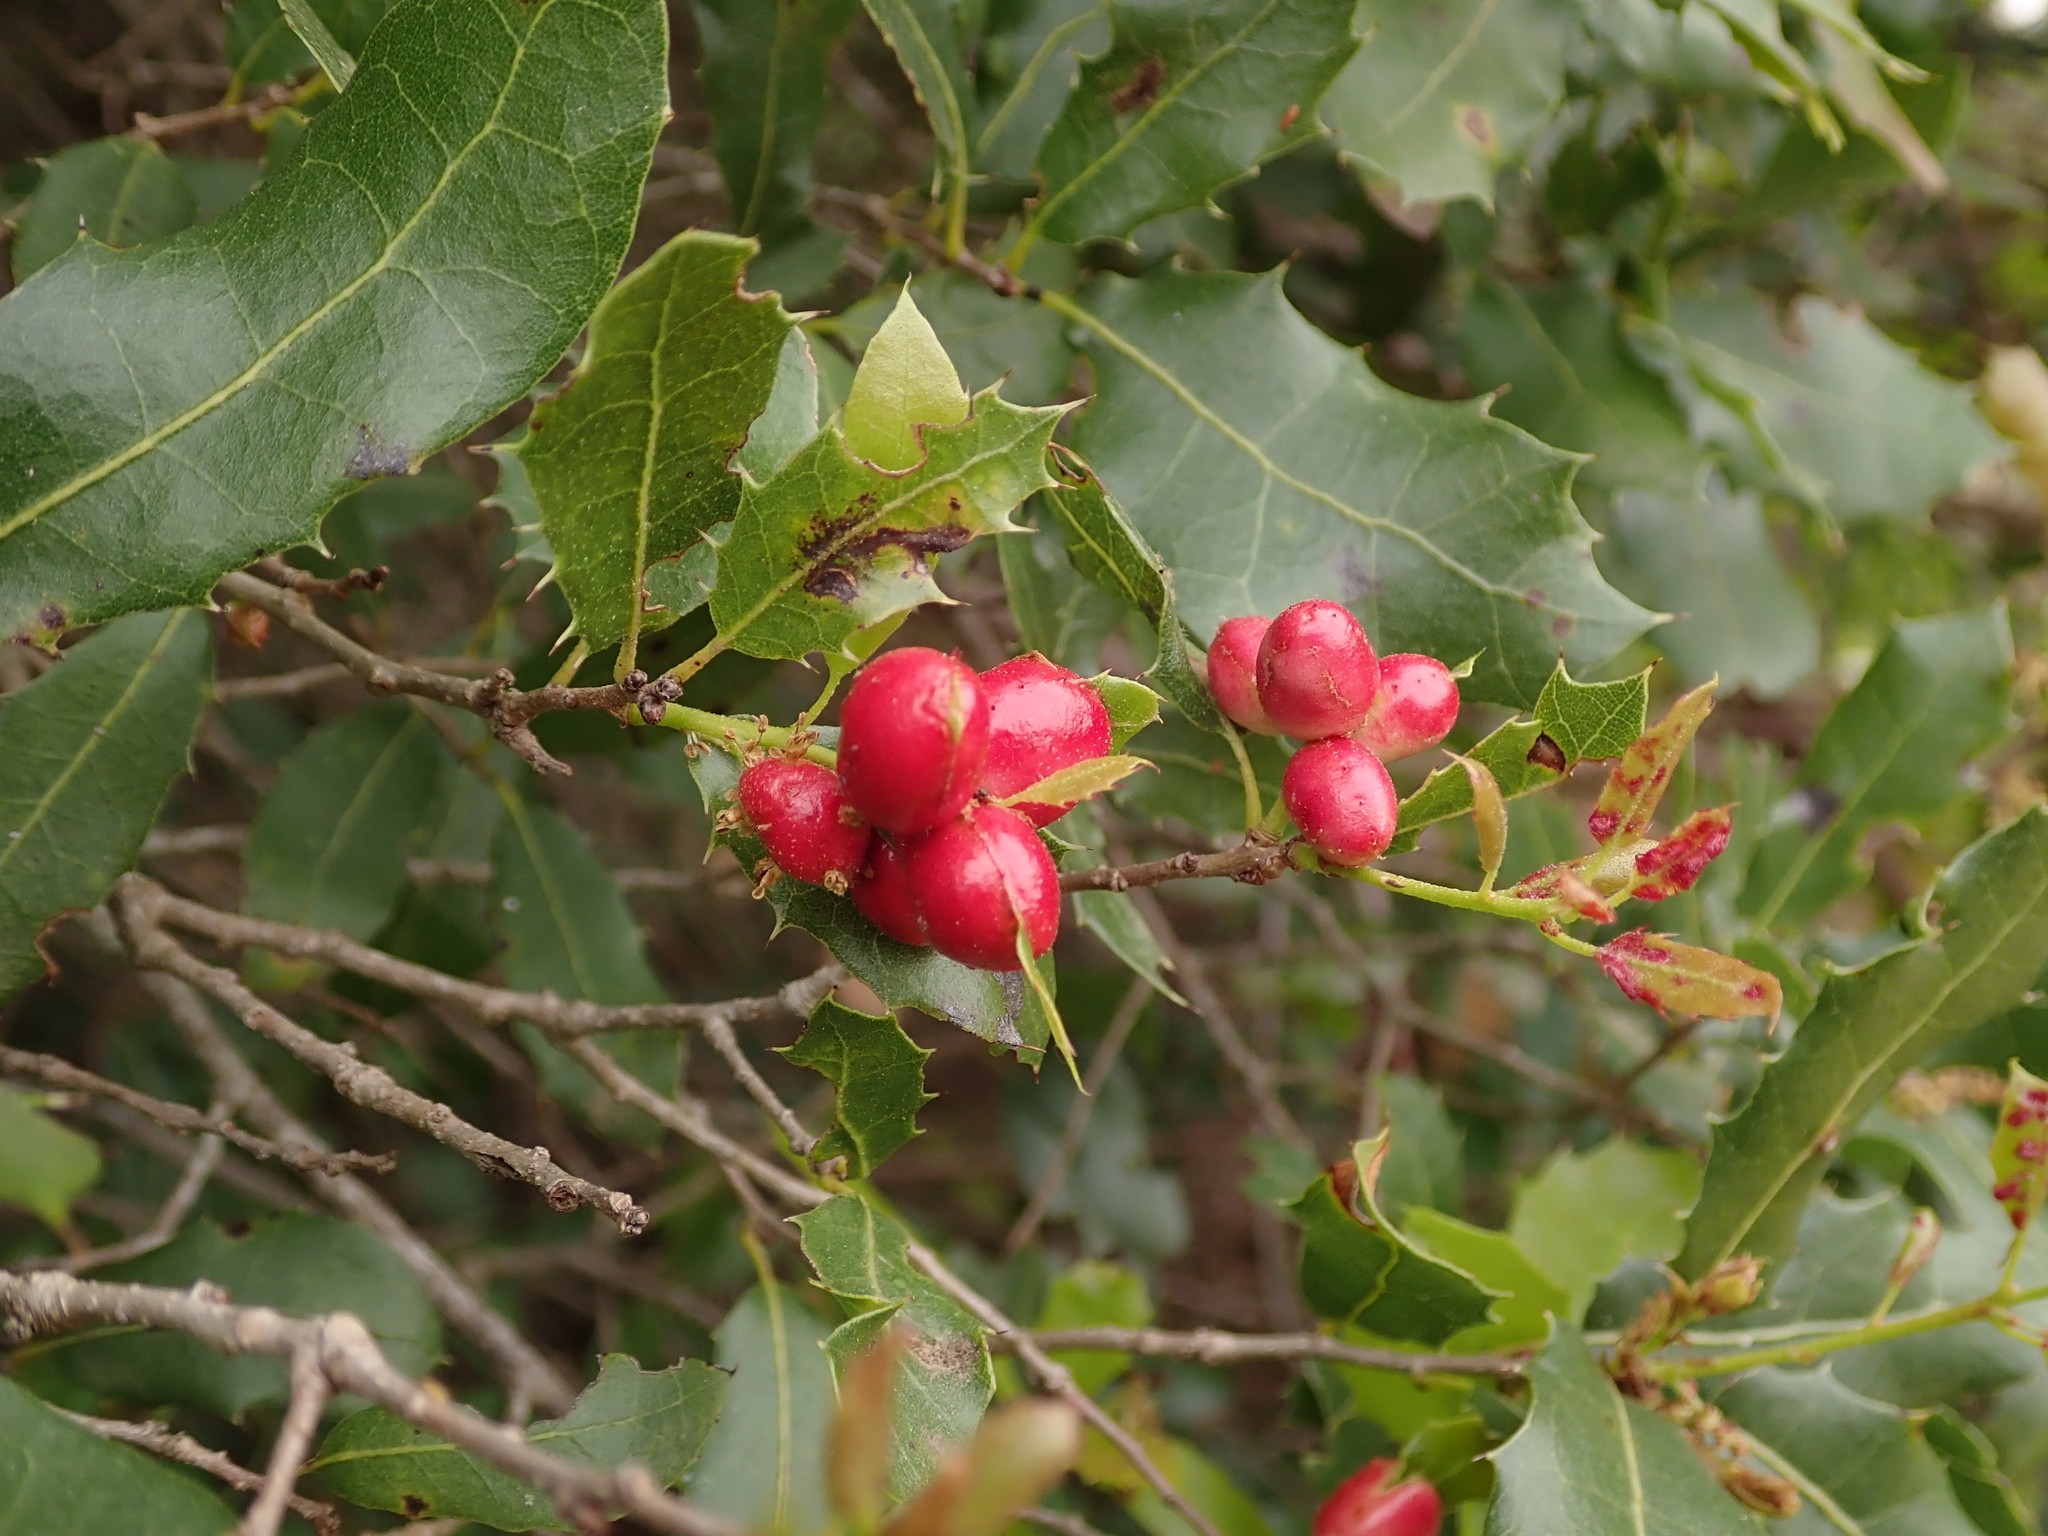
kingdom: Animalia
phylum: Arthropoda
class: Insecta
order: Hymenoptera
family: Cynipidae
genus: Plagiotrochus
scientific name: Plagiotrochus quercusilicis
